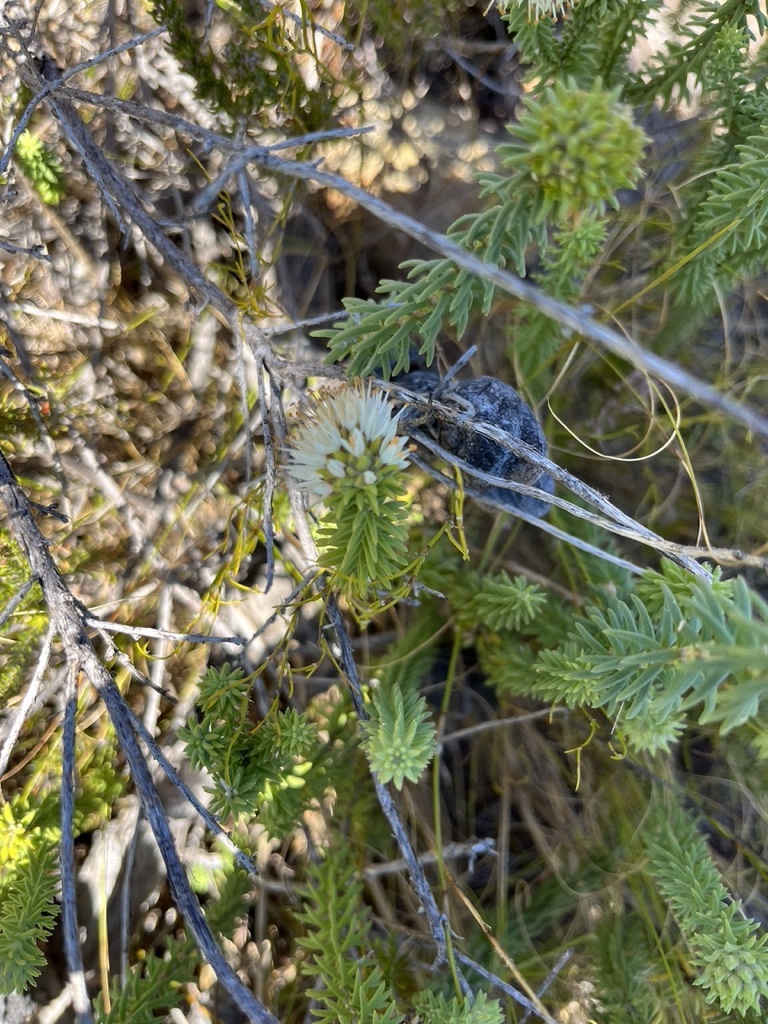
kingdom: Plantae
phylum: Tracheophyta
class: Magnoliopsida
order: Lamiales
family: Stilbaceae
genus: Campylostachys
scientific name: Campylostachys cernua
